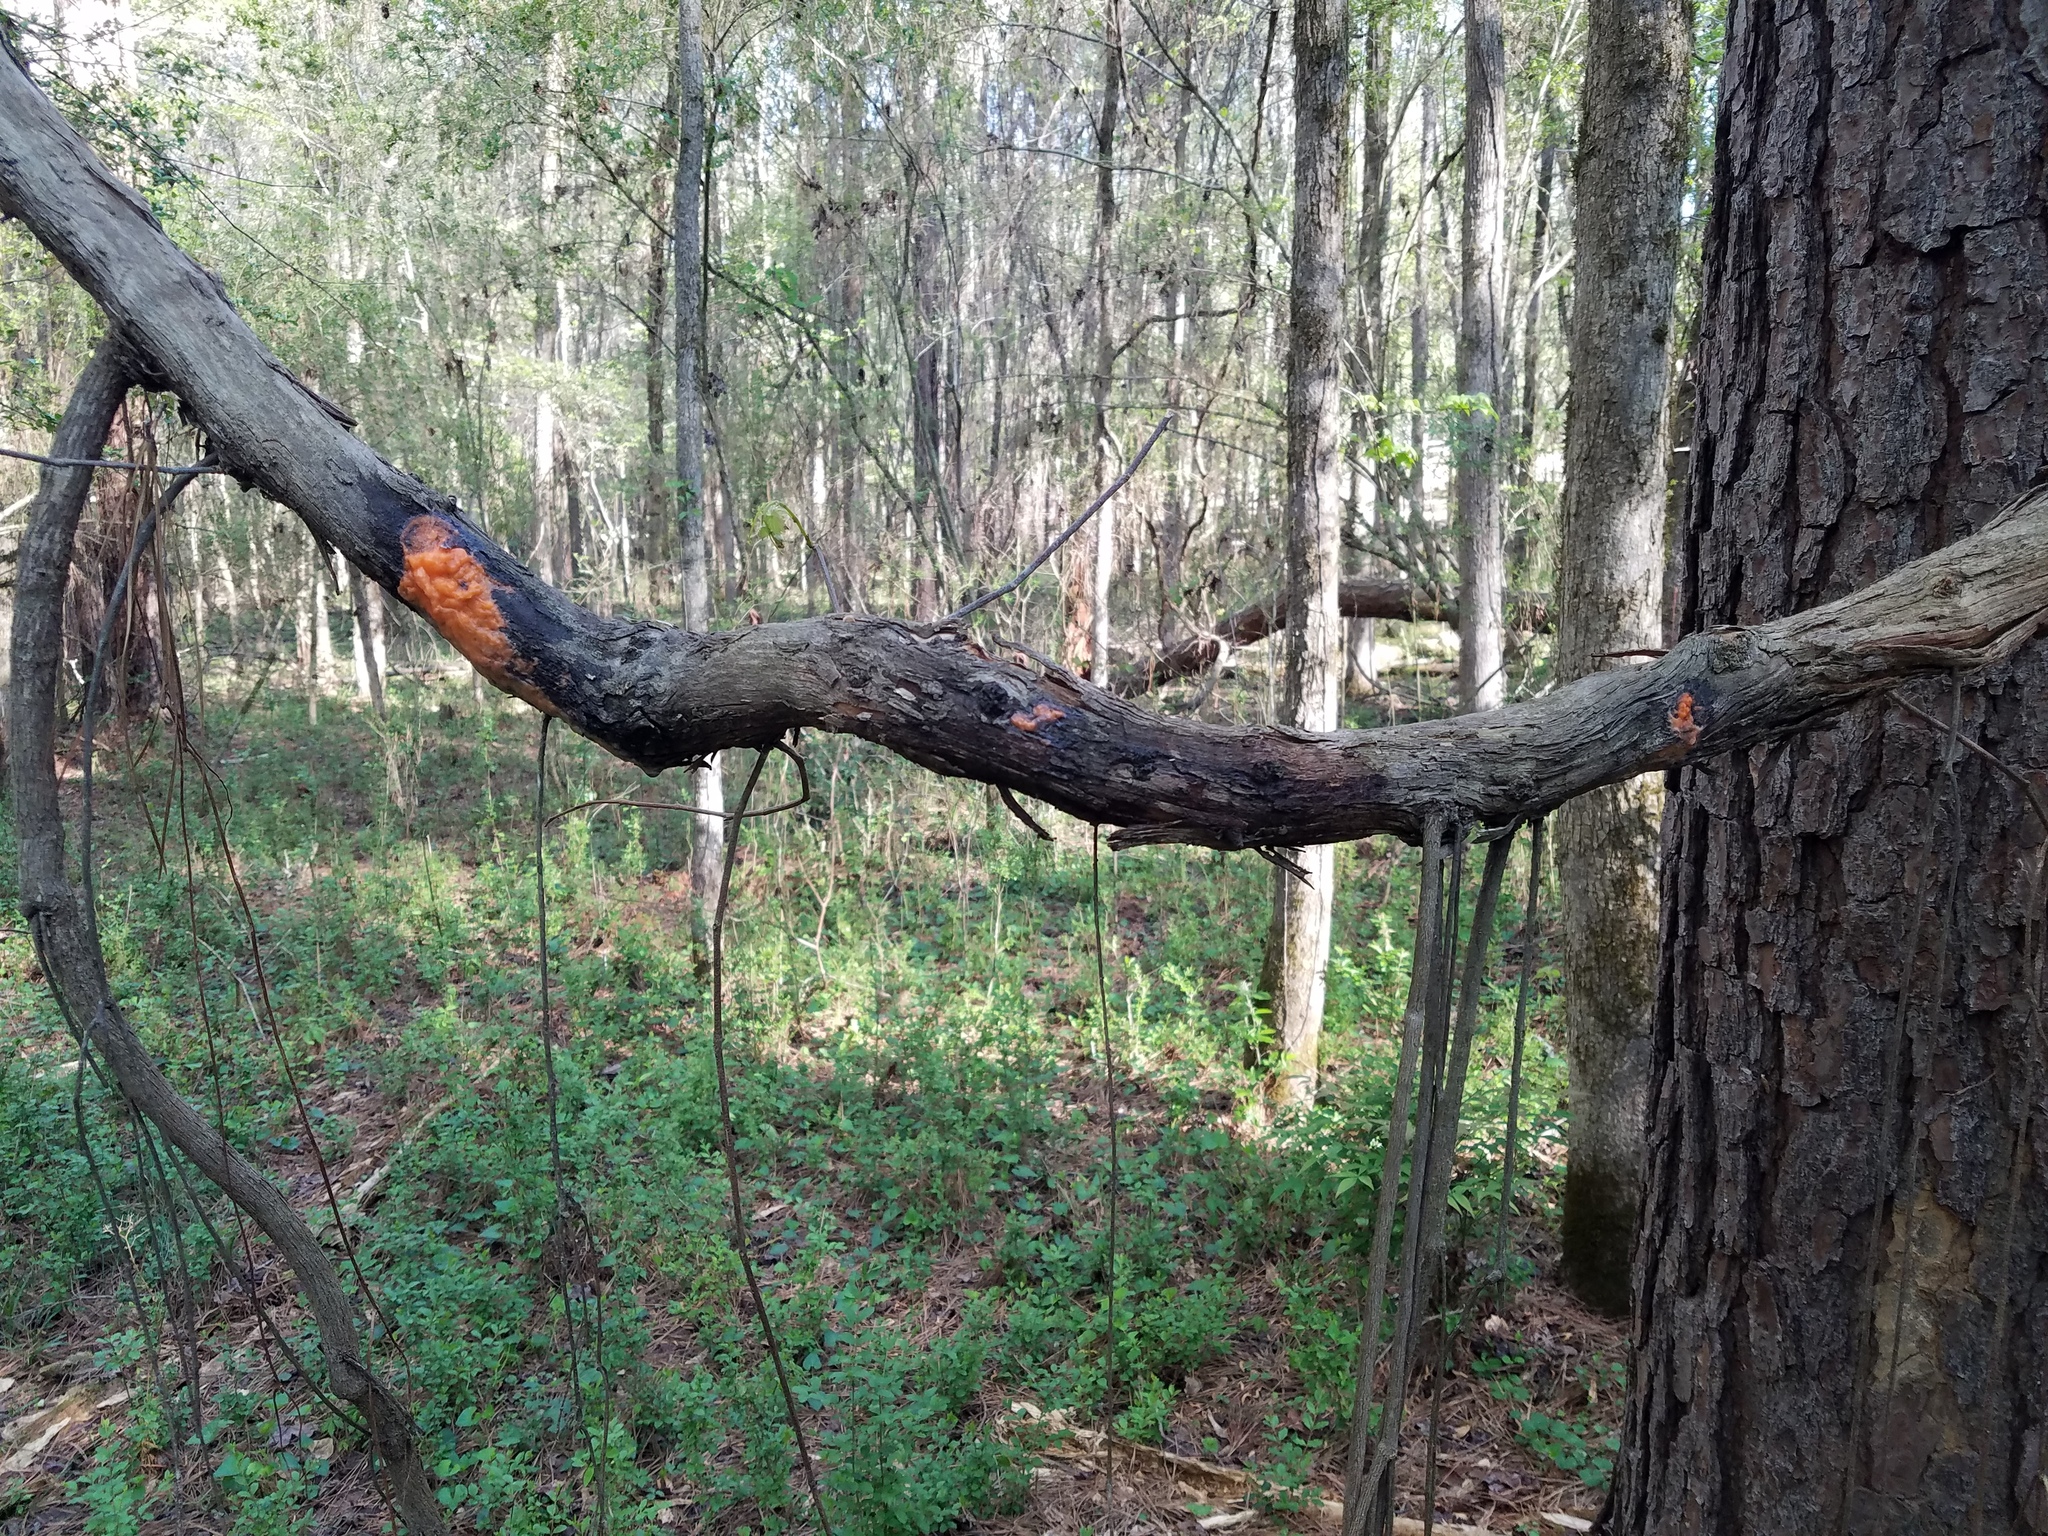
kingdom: Fungi
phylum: Ascomycota
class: Sordariomycetes
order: Hypocreales
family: Nectriaceae
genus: Fusicolla
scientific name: Fusicolla merismoides
